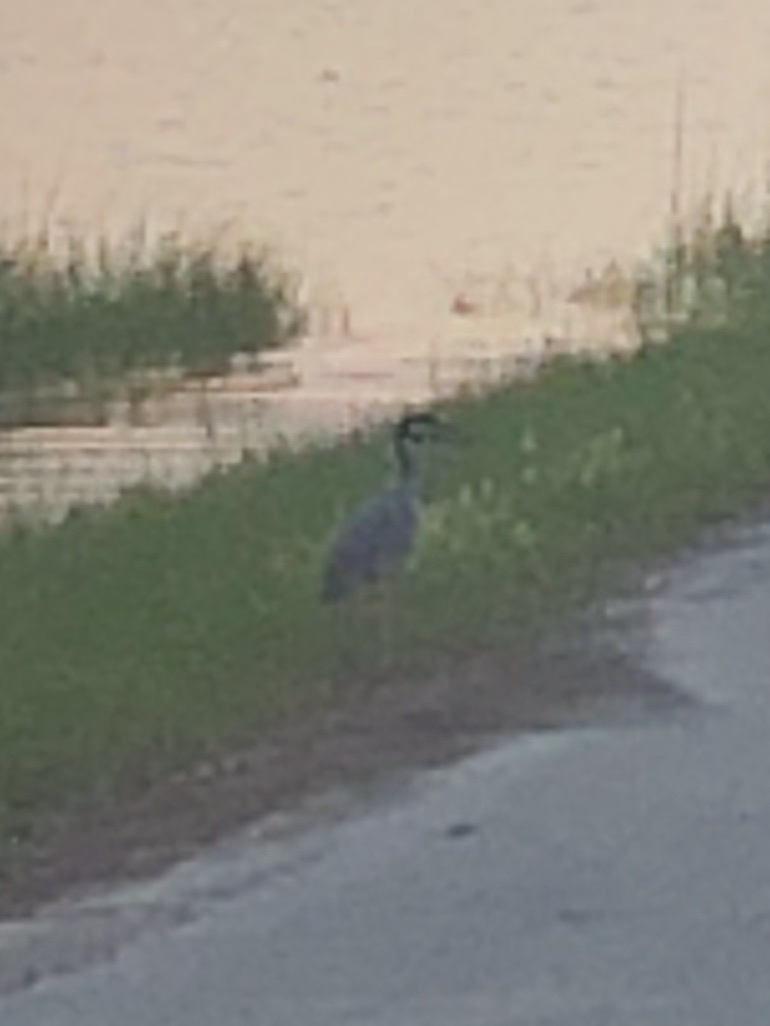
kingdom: Animalia
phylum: Chordata
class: Aves
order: Pelecaniformes
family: Ardeidae
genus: Nyctanassa
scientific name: Nyctanassa violacea
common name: Yellow-crowned night heron
